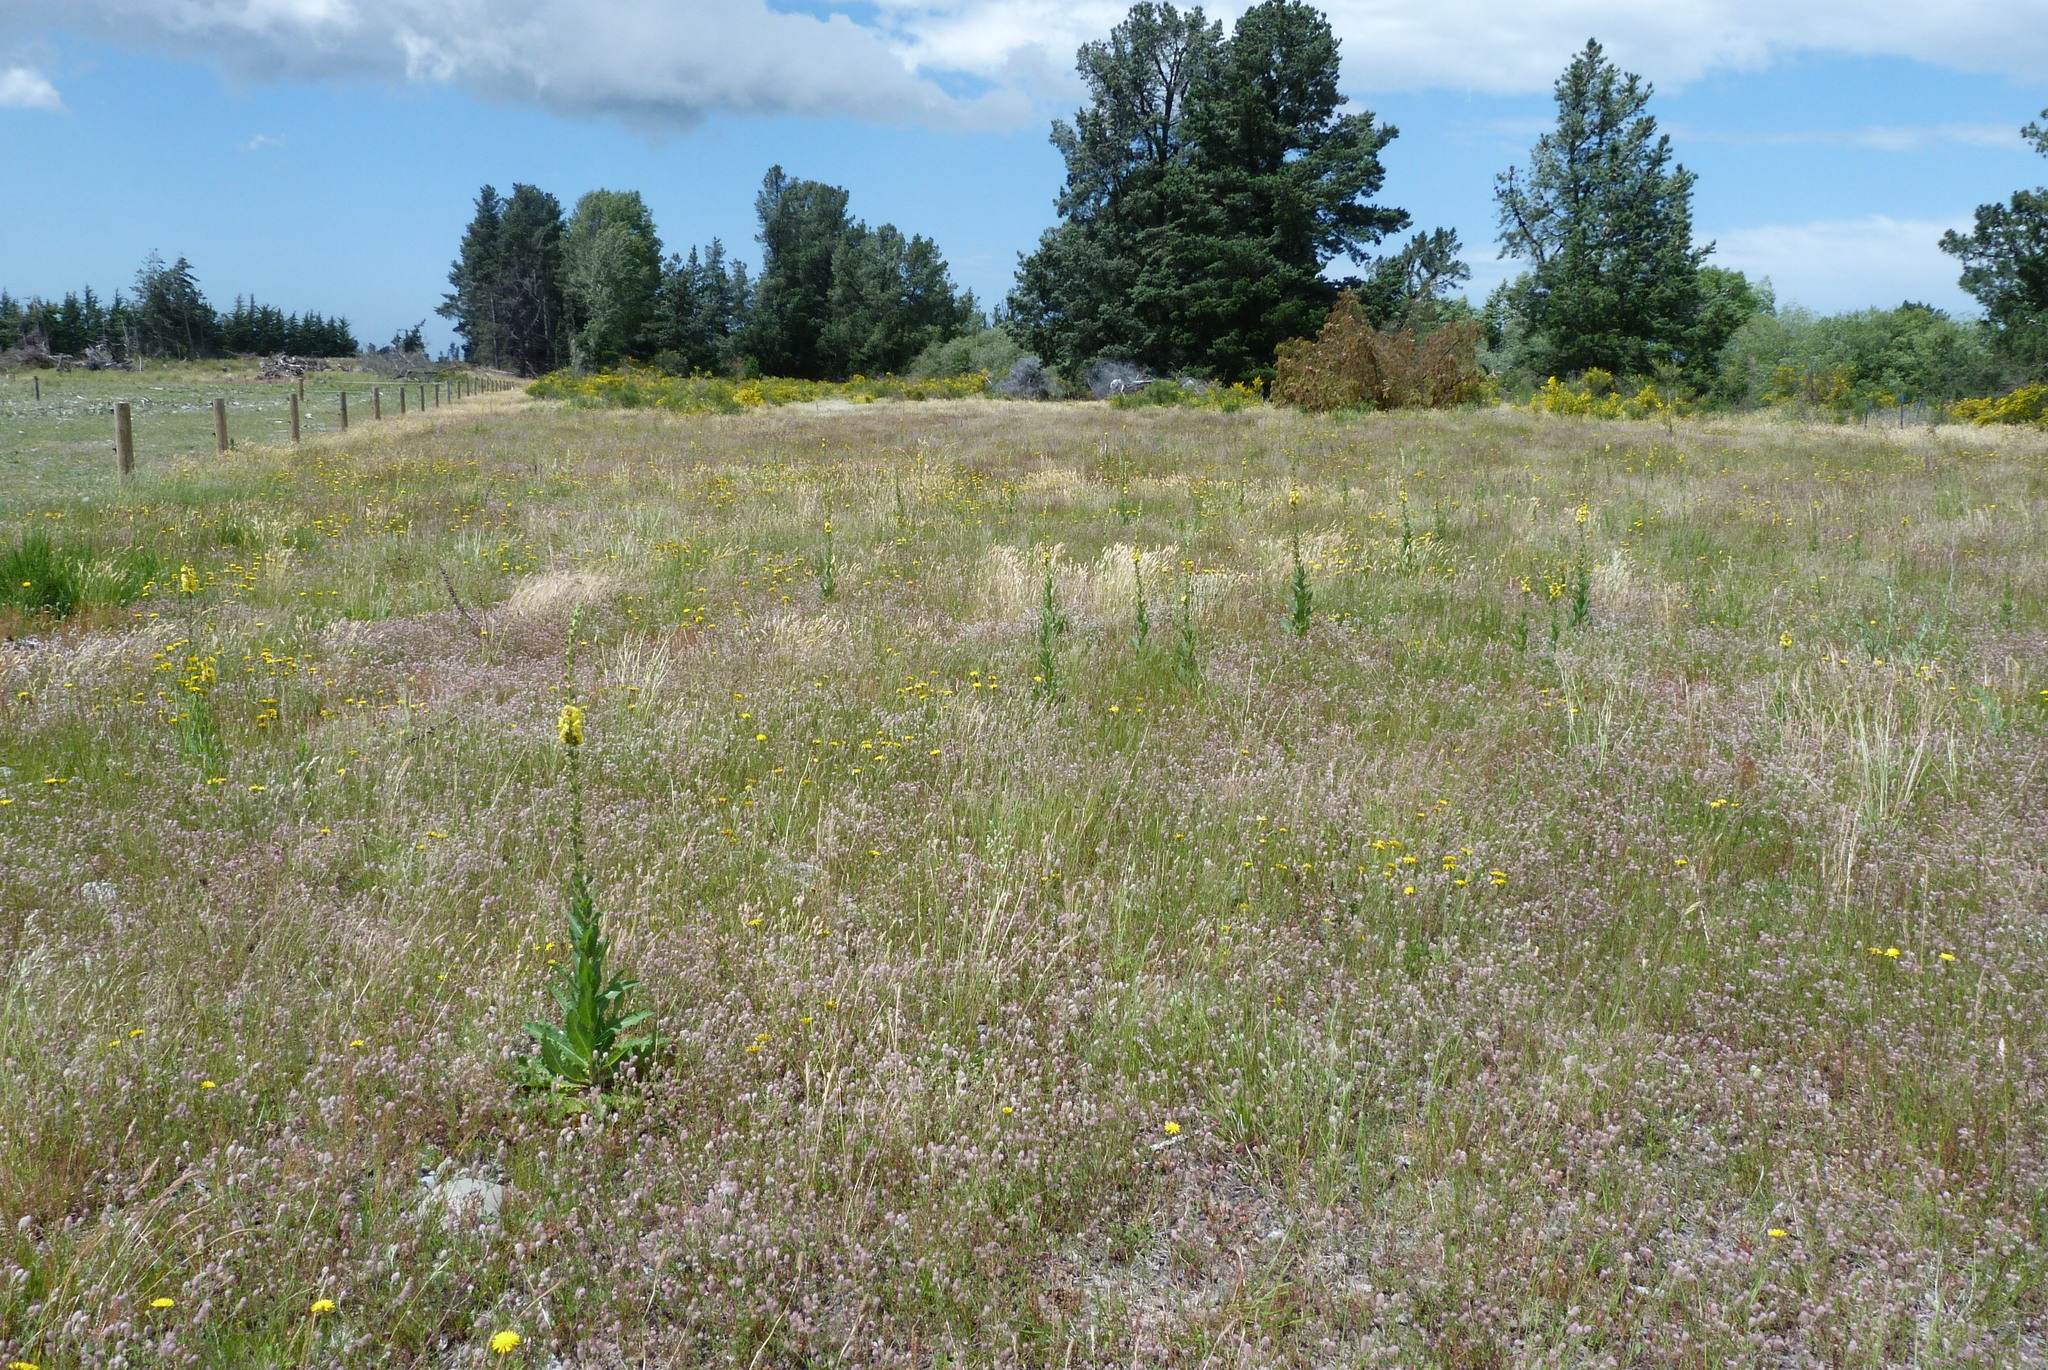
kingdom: Plantae
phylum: Tracheophyta
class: Magnoliopsida
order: Lamiales
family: Scrophulariaceae
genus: Verbascum
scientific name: Verbascum virgatum
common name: Twiggy mullein
